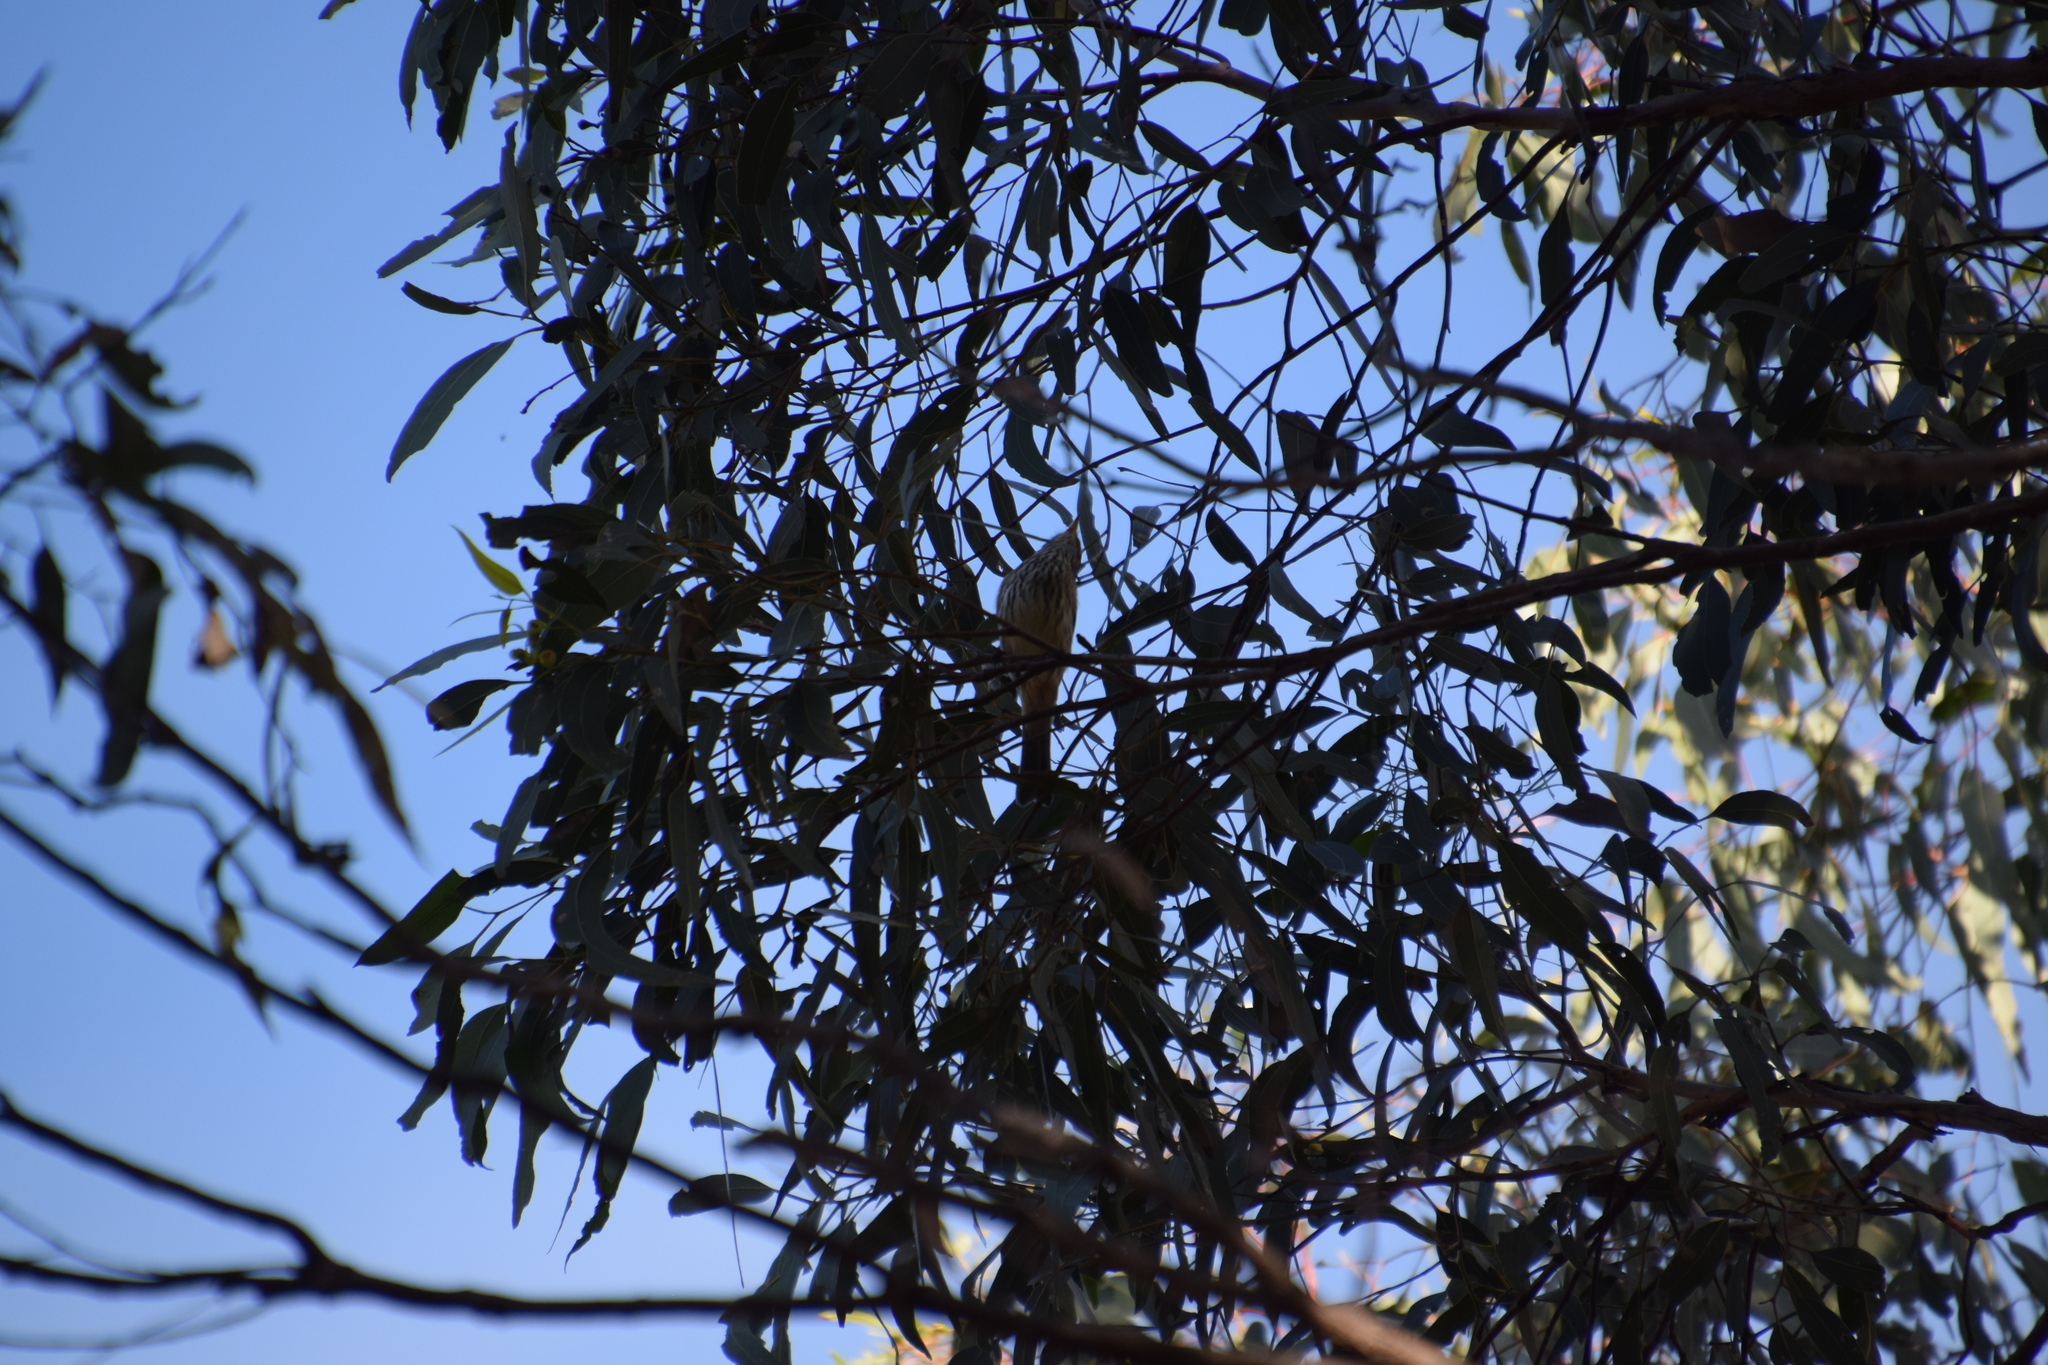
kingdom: Animalia
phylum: Chordata
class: Aves
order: Passeriformes
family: Pachycephalidae
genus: Pachycephala
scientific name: Pachycephala rufiventris
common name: Rufous whistler
